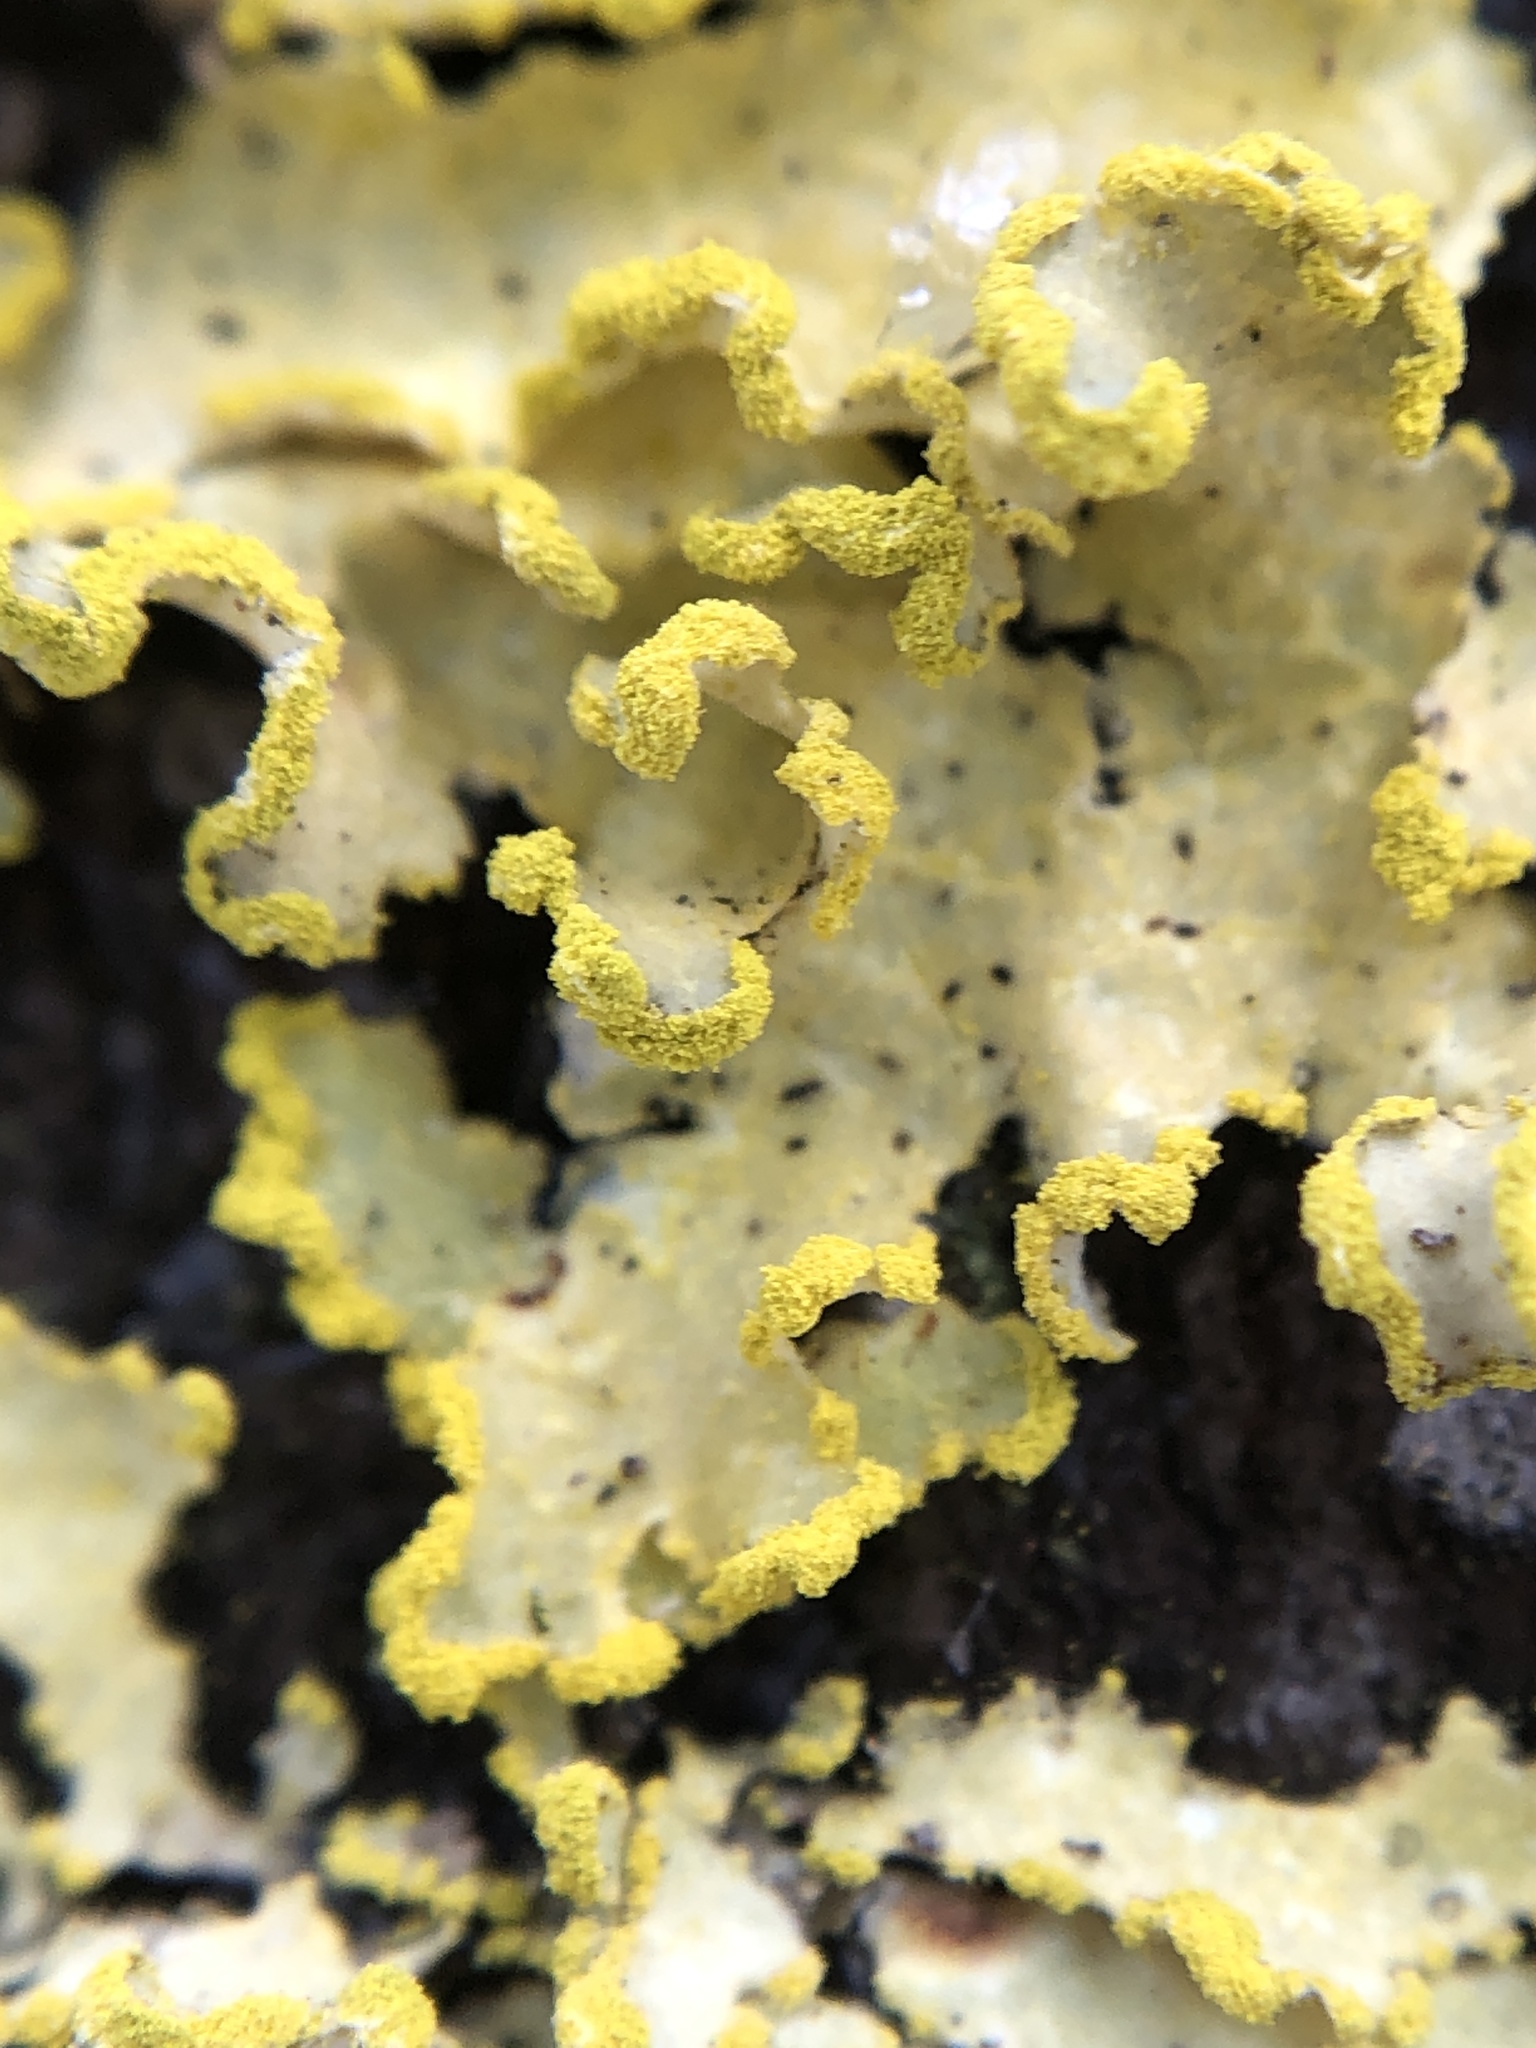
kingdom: Fungi
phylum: Ascomycota
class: Lecanoromycetes
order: Lecanorales
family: Parmeliaceae
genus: Vulpicida
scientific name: Vulpicida pinastri
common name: Powdered sunshine lichen
